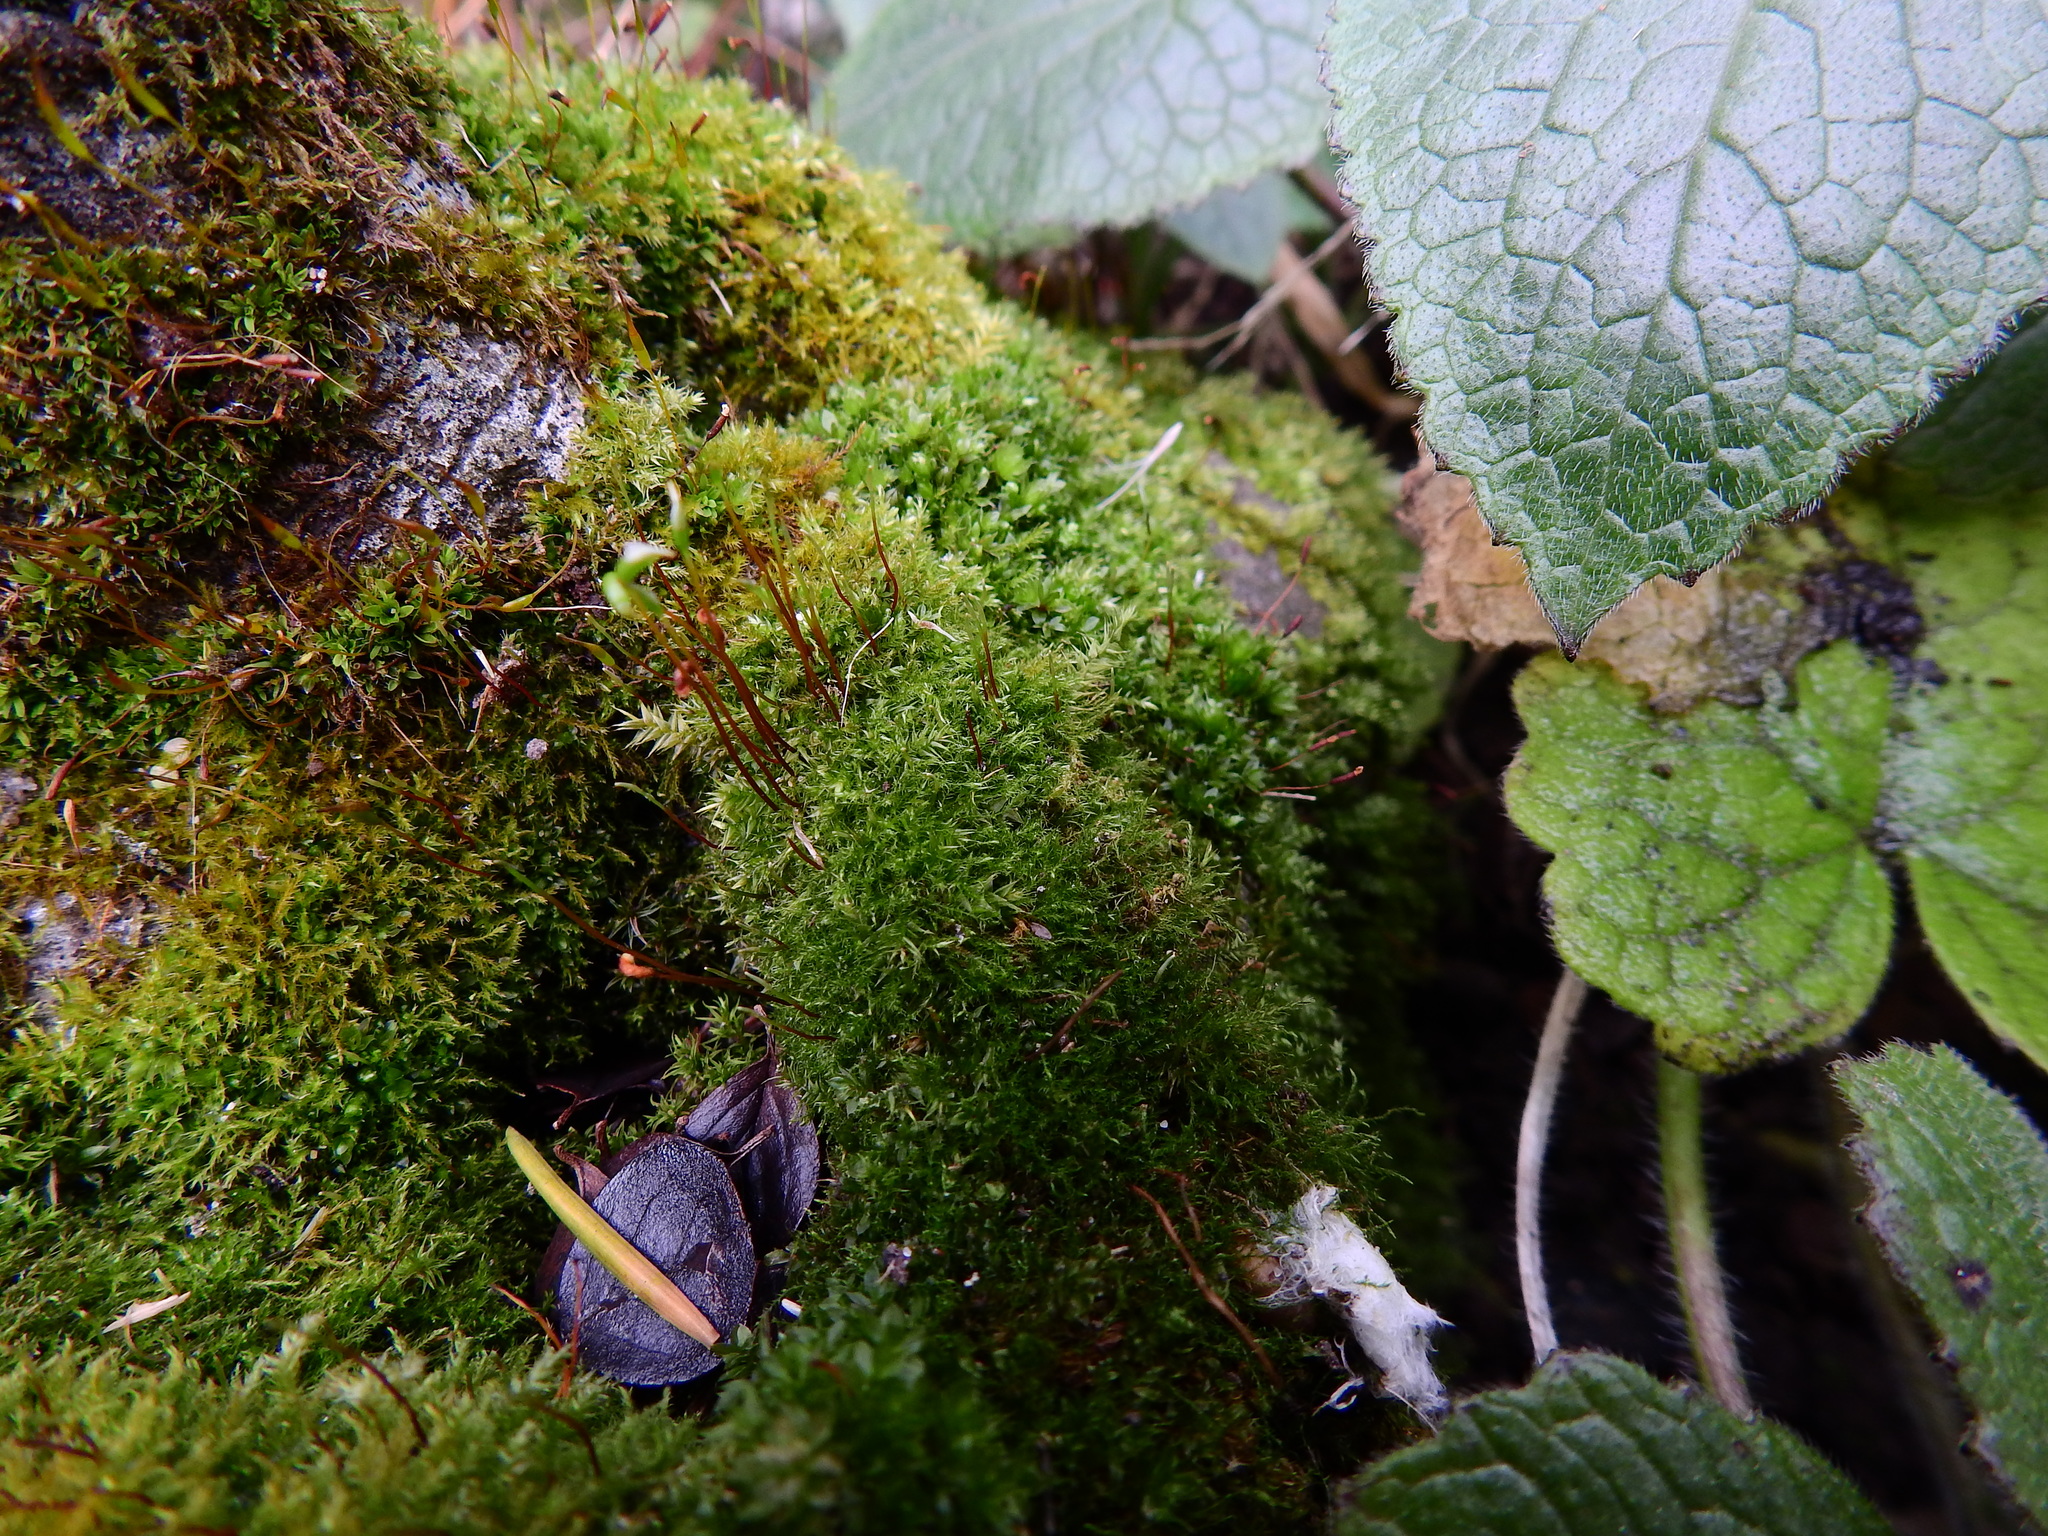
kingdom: Plantae
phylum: Bryophyta
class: Bryopsida
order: Hypnales
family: Amblystegiaceae
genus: Amblystegium
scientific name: Amblystegium serpens
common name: Jurkatzka's feather moss
